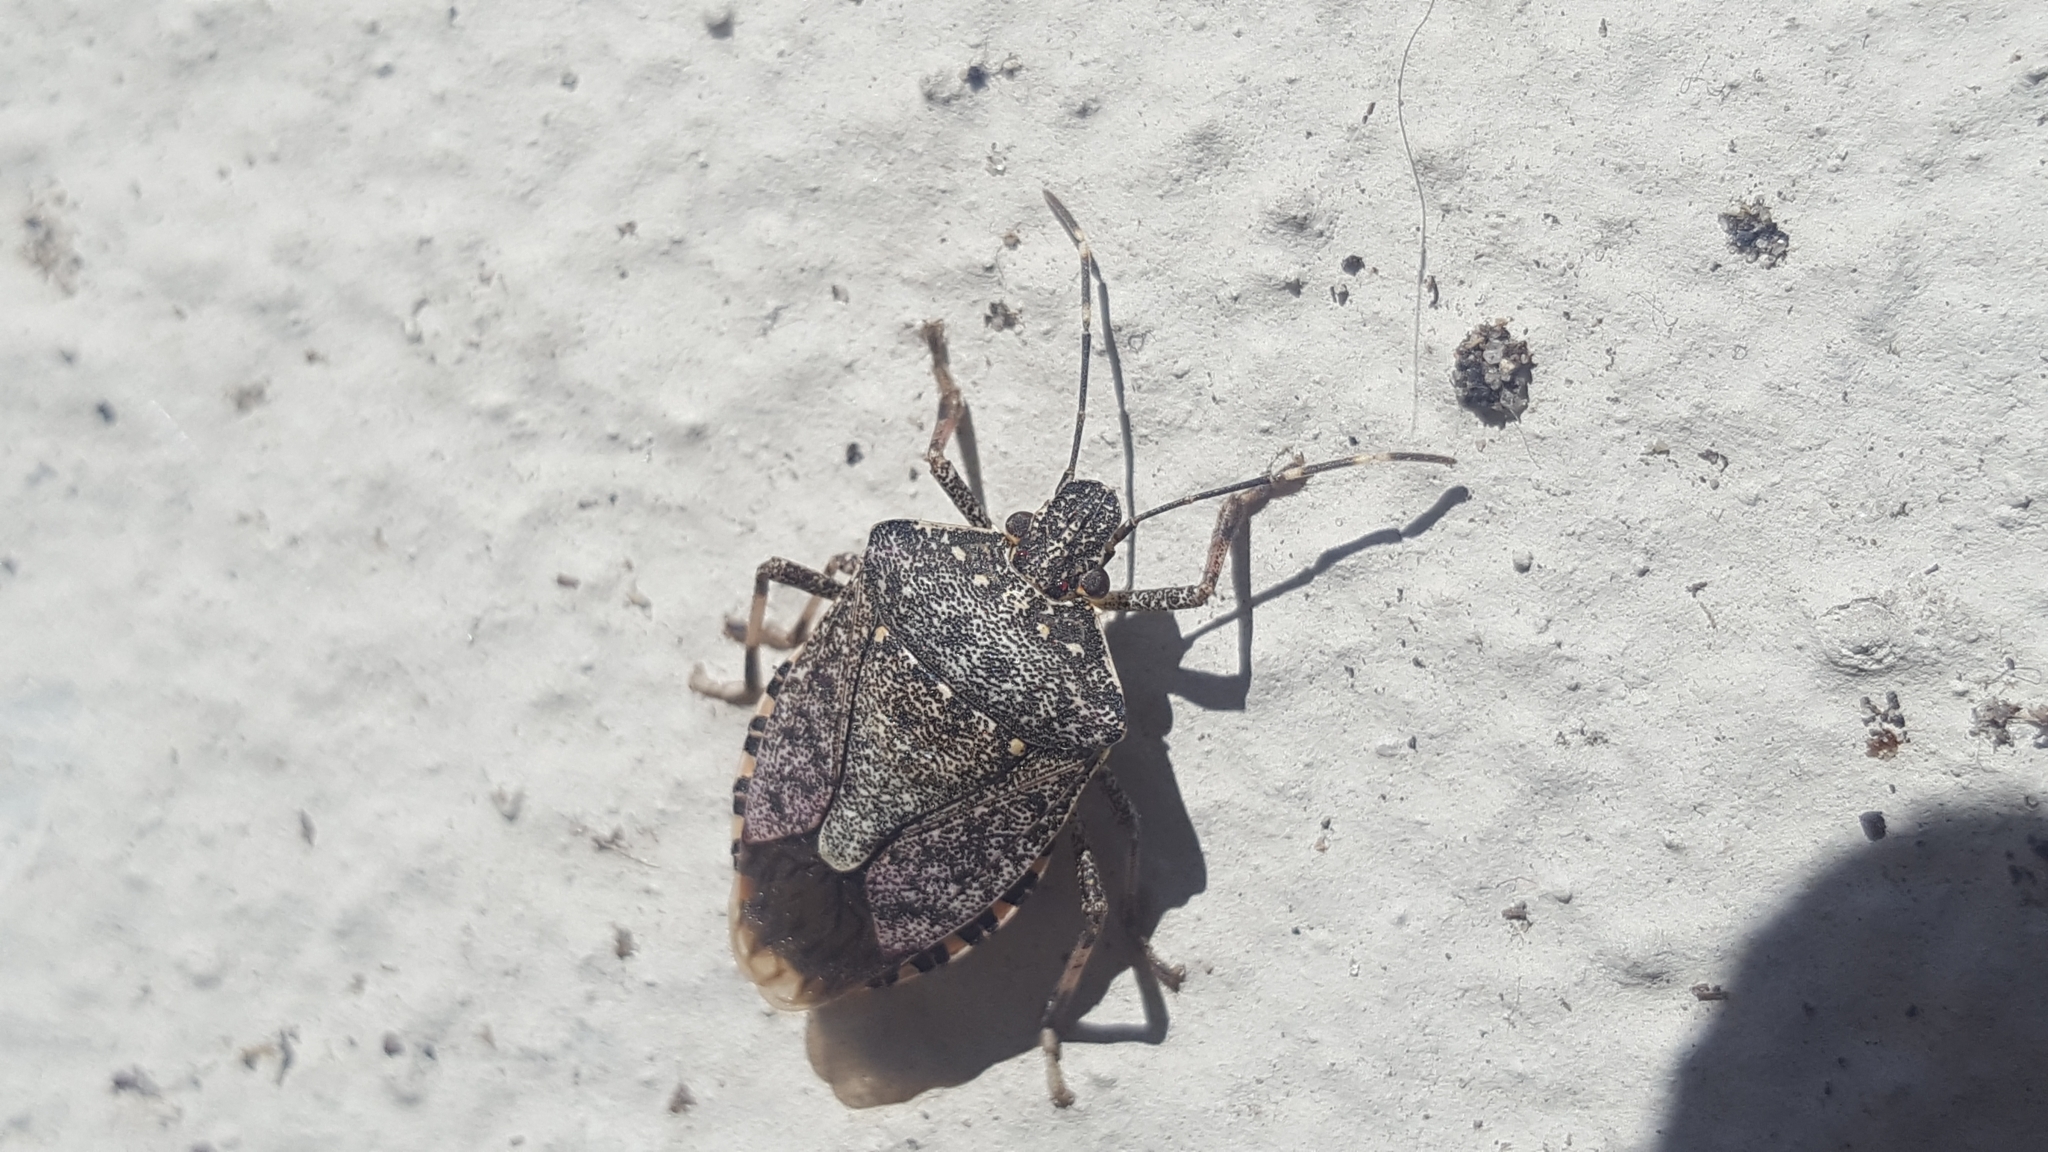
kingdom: Animalia
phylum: Arthropoda
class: Insecta
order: Hemiptera
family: Pentatomidae
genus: Halyomorpha
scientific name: Halyomorpha halys
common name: Brown marmorated stink bug
